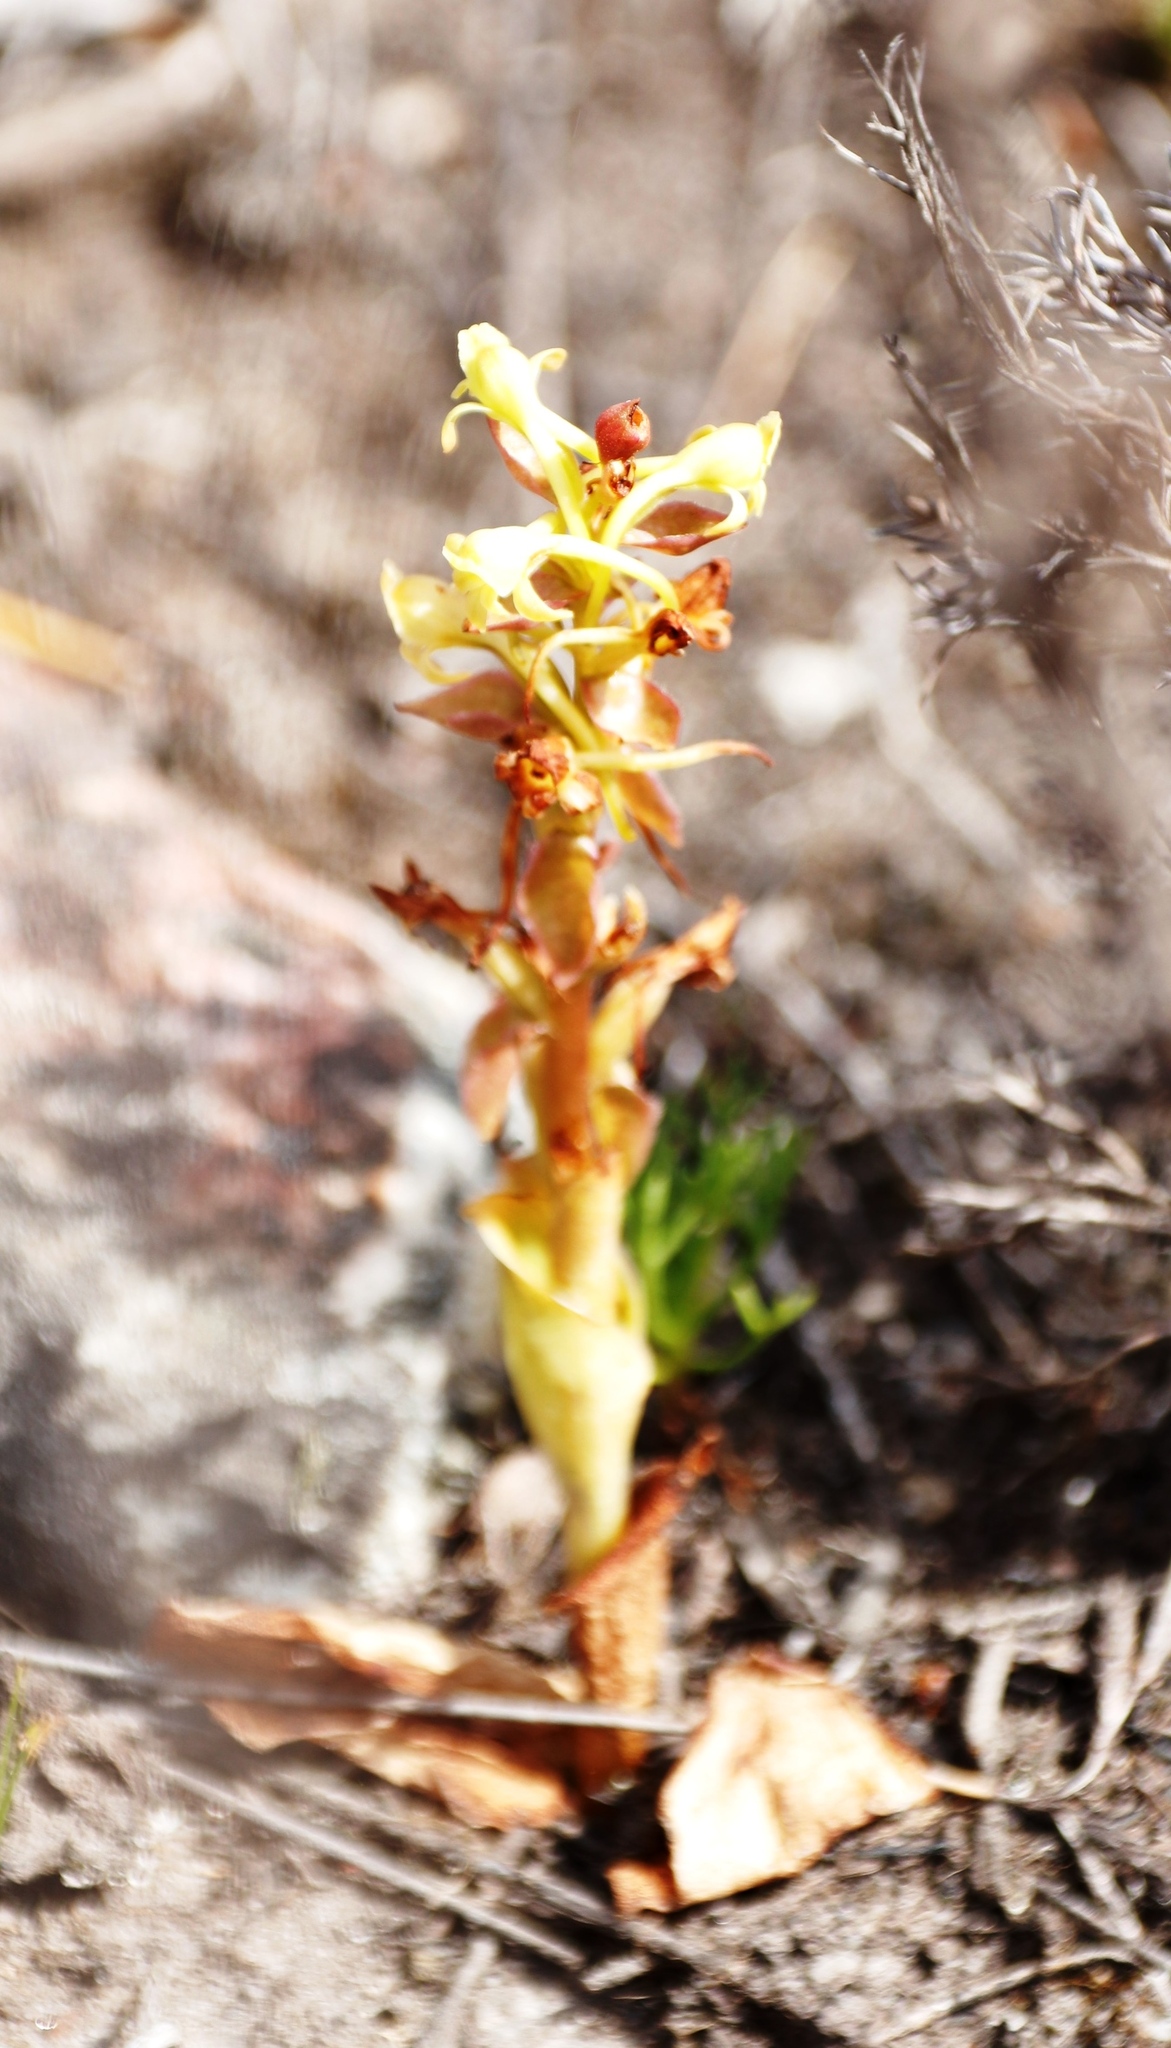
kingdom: Plantae
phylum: Tracheophyta
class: Liliopsida
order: Asparagales
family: Orchidaceae
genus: Satyrium
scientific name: Satyrium humile
